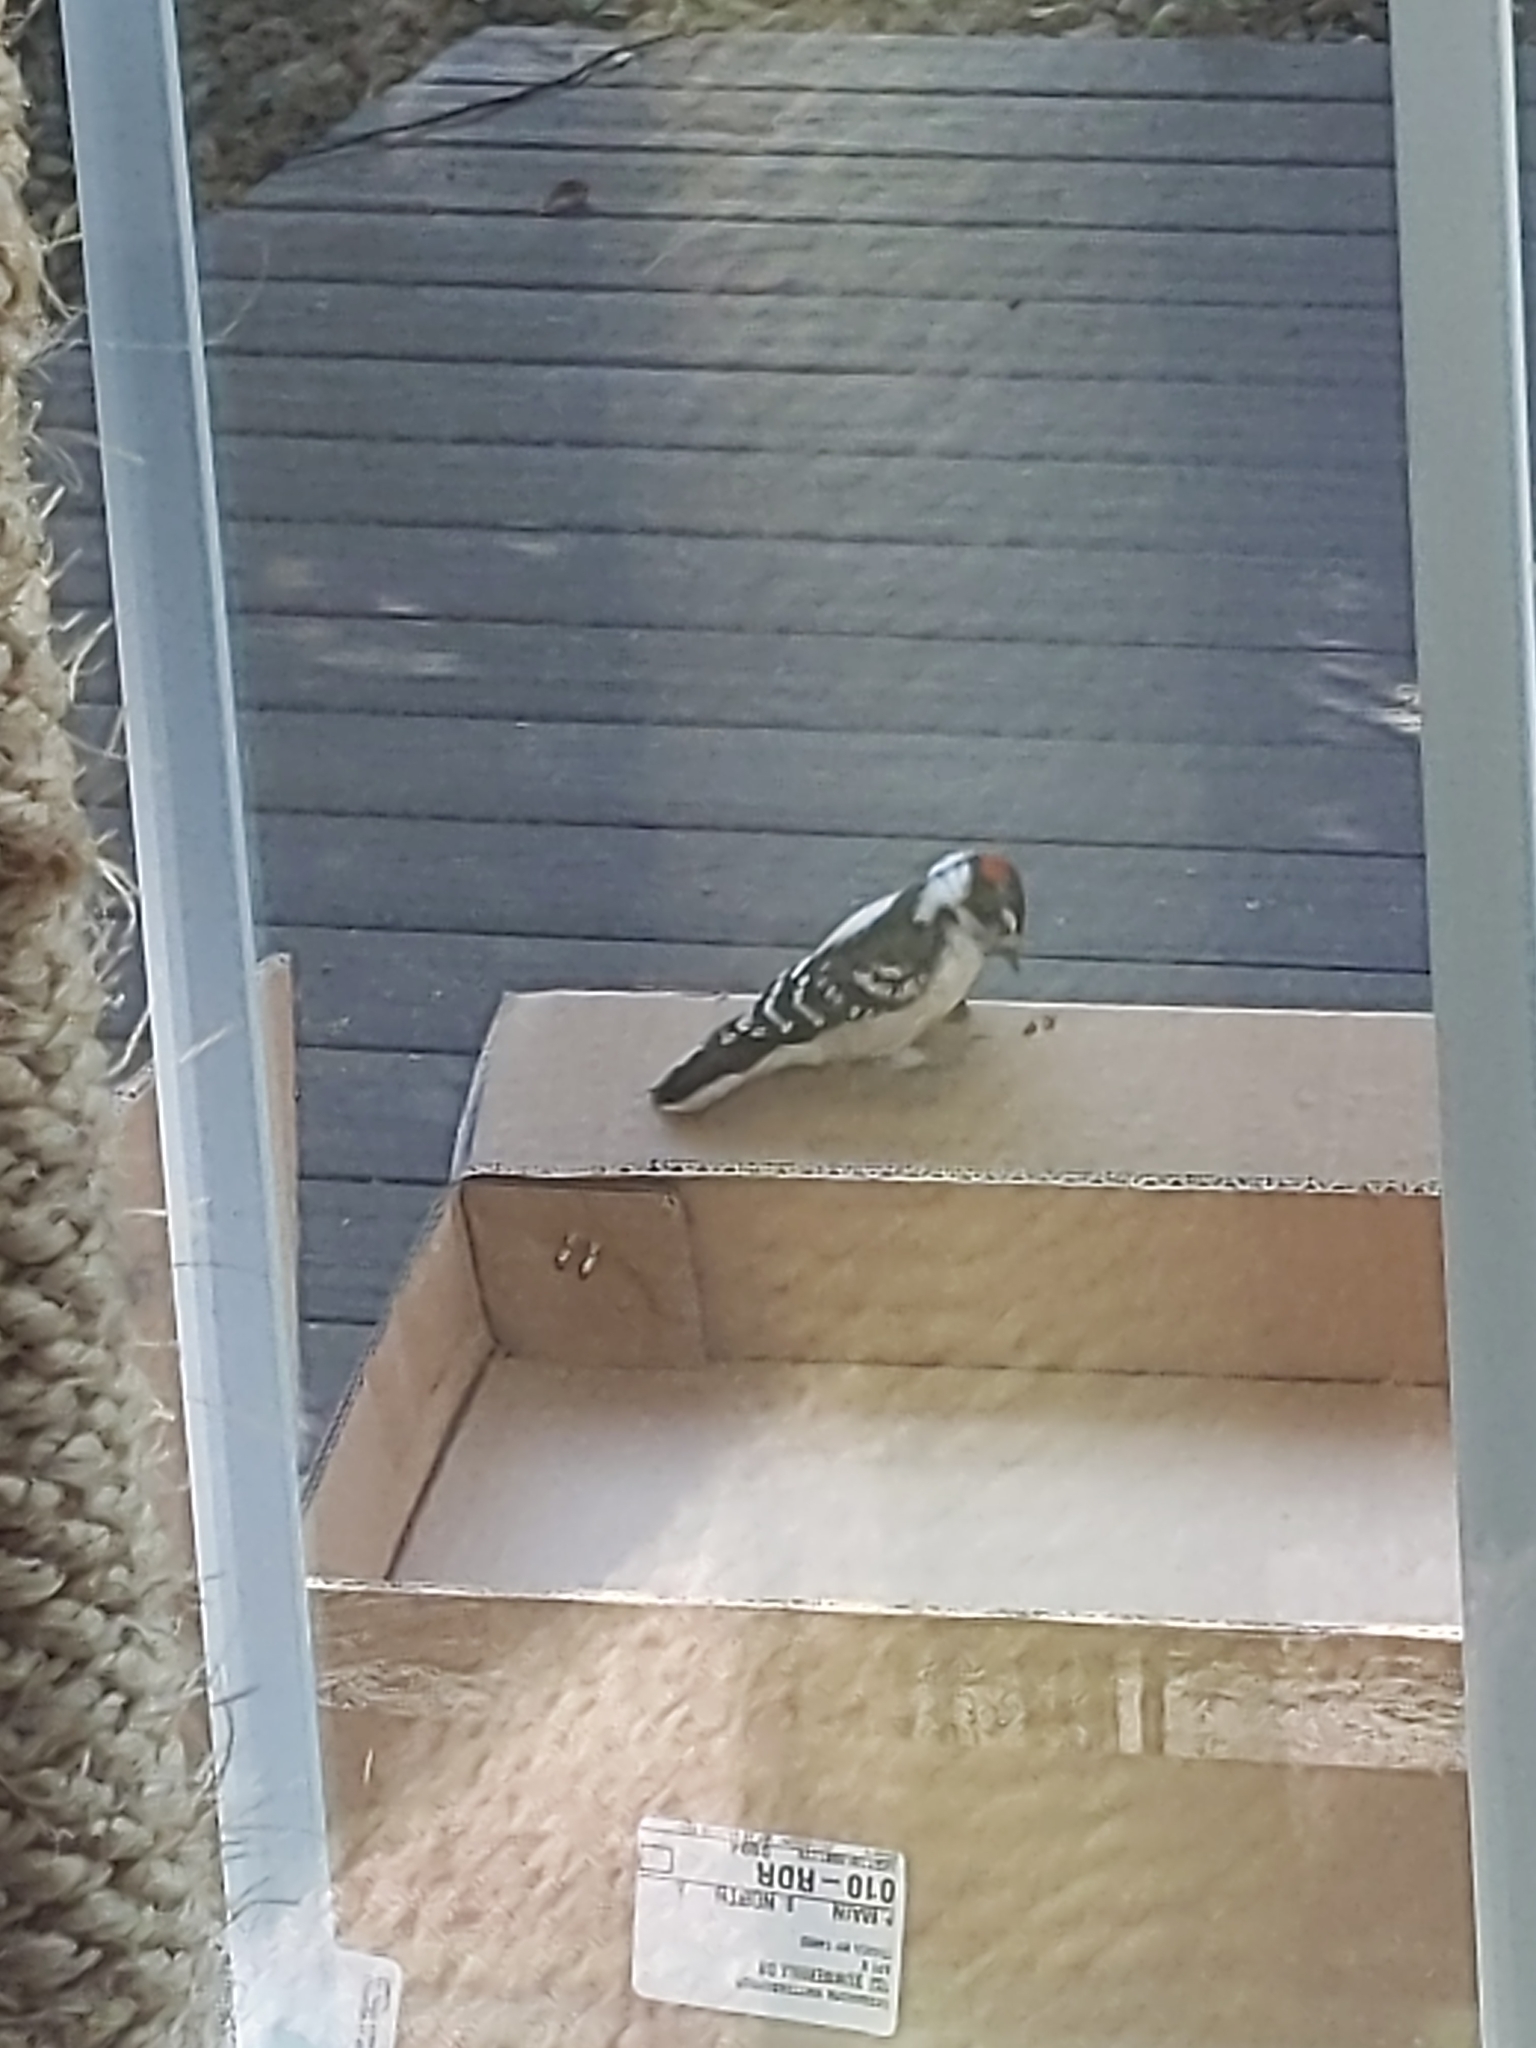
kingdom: Animalia
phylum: Chordata
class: Aves
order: Piciformes
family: Picidae
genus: Dryobates
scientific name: Dryobates pubescens
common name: Downy woodpecker
